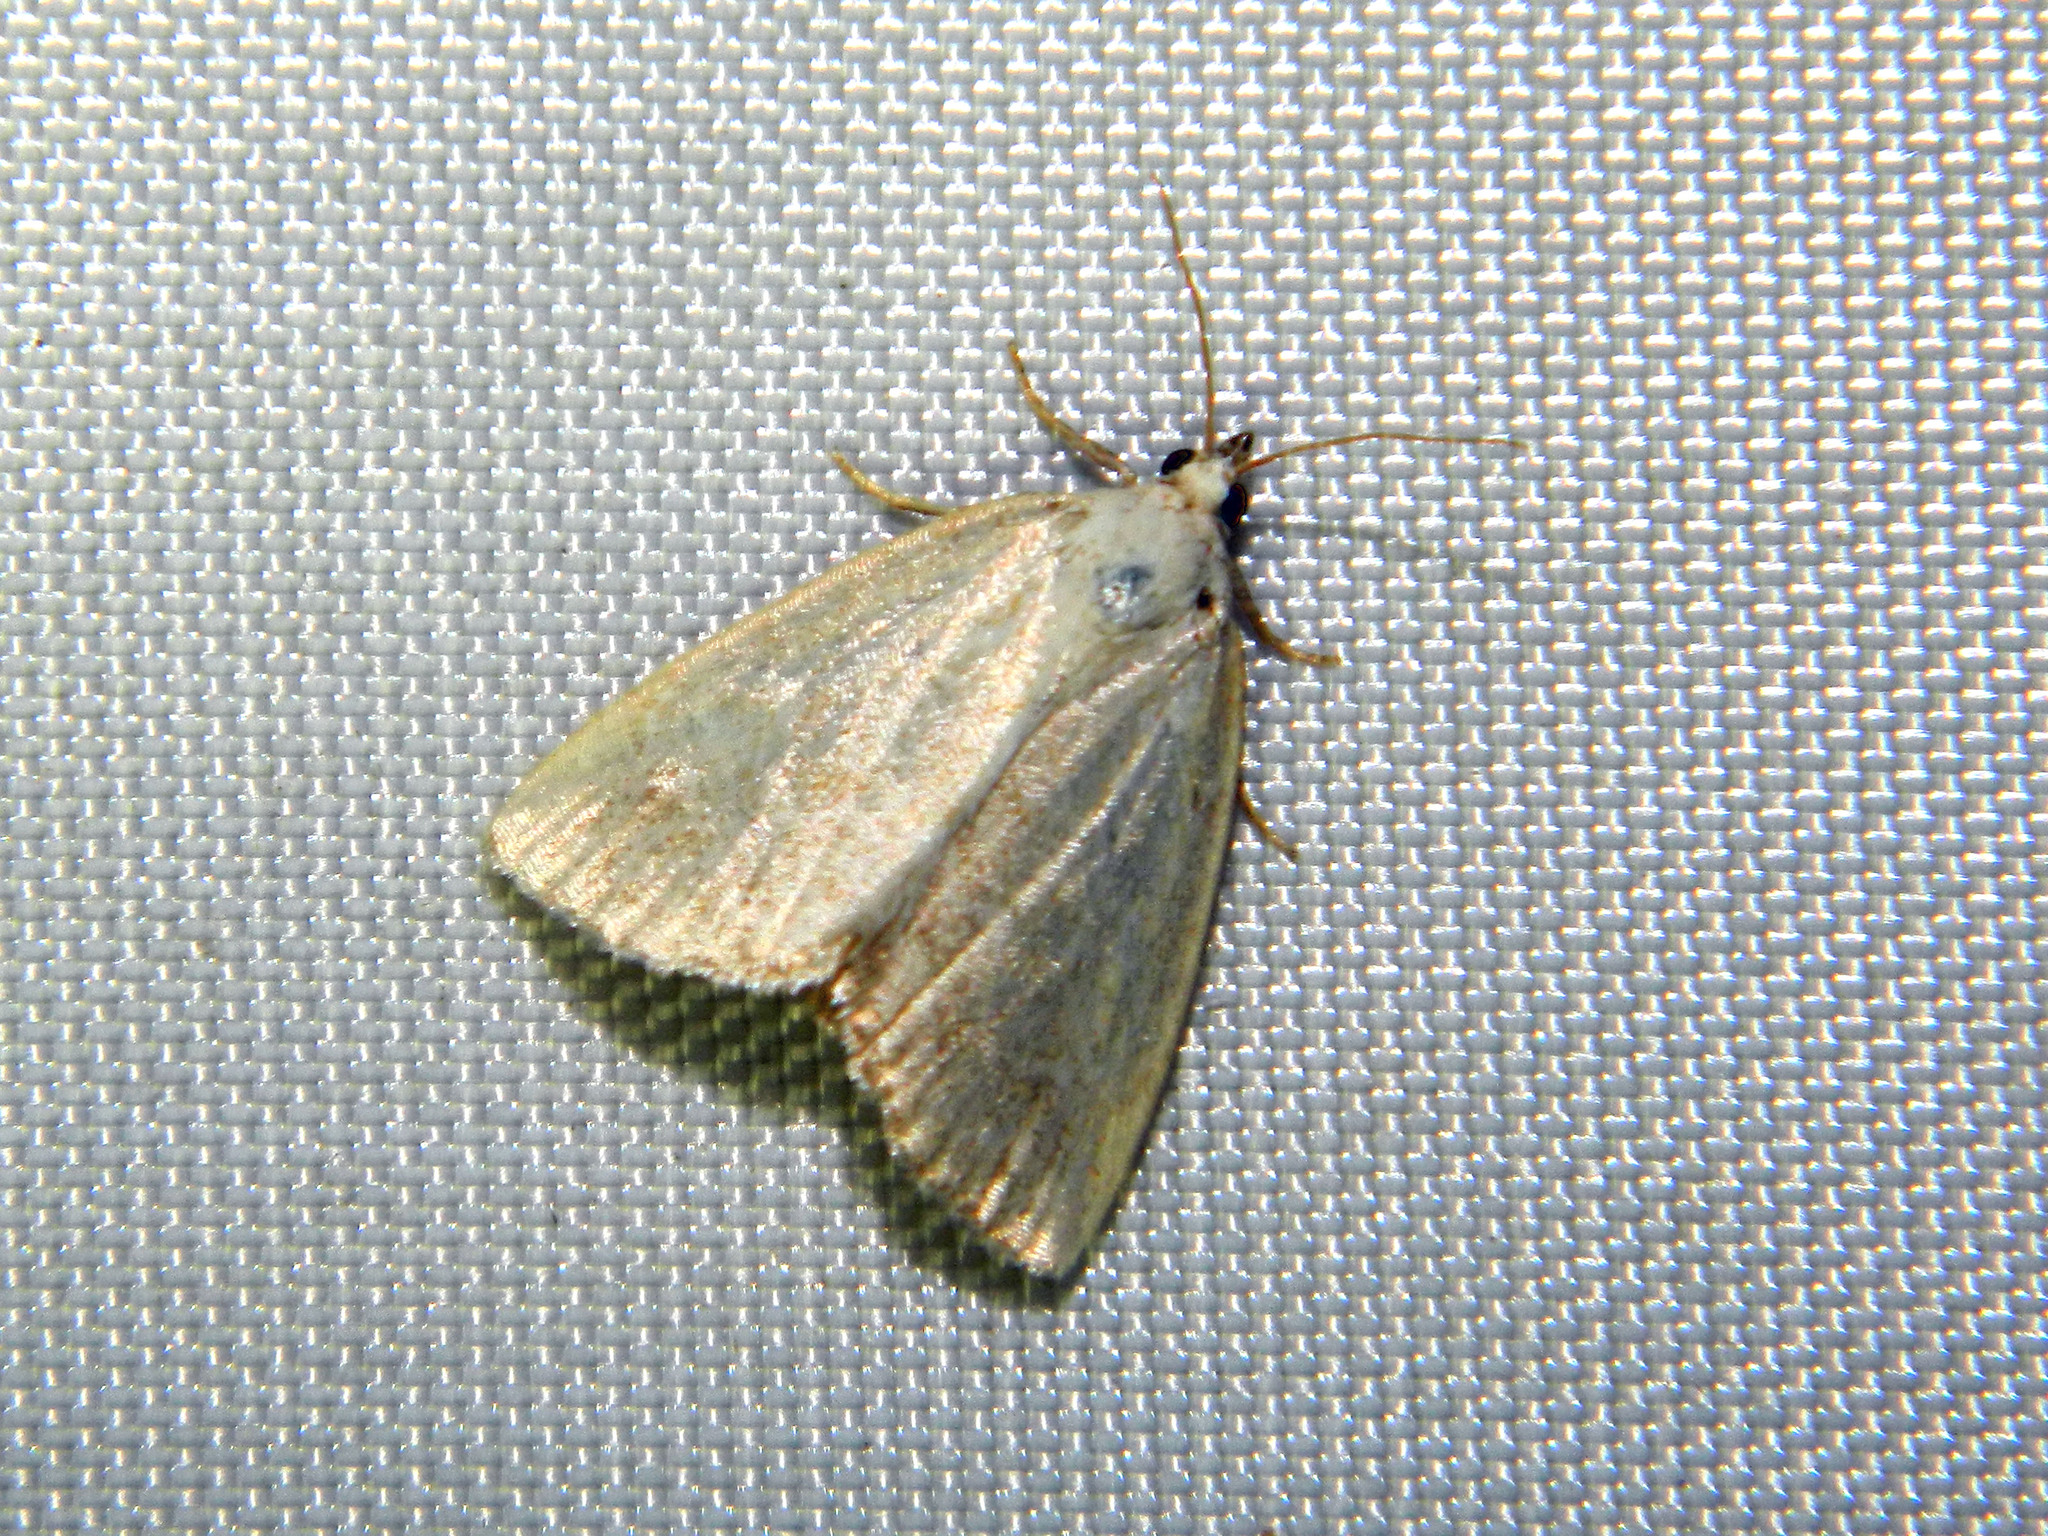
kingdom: Animalia
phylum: Arthropoda
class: Insecta
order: Lepidoptera
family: Noctuidae
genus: Protodeltote
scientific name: Protodeltote albidula
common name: Pale glyph
